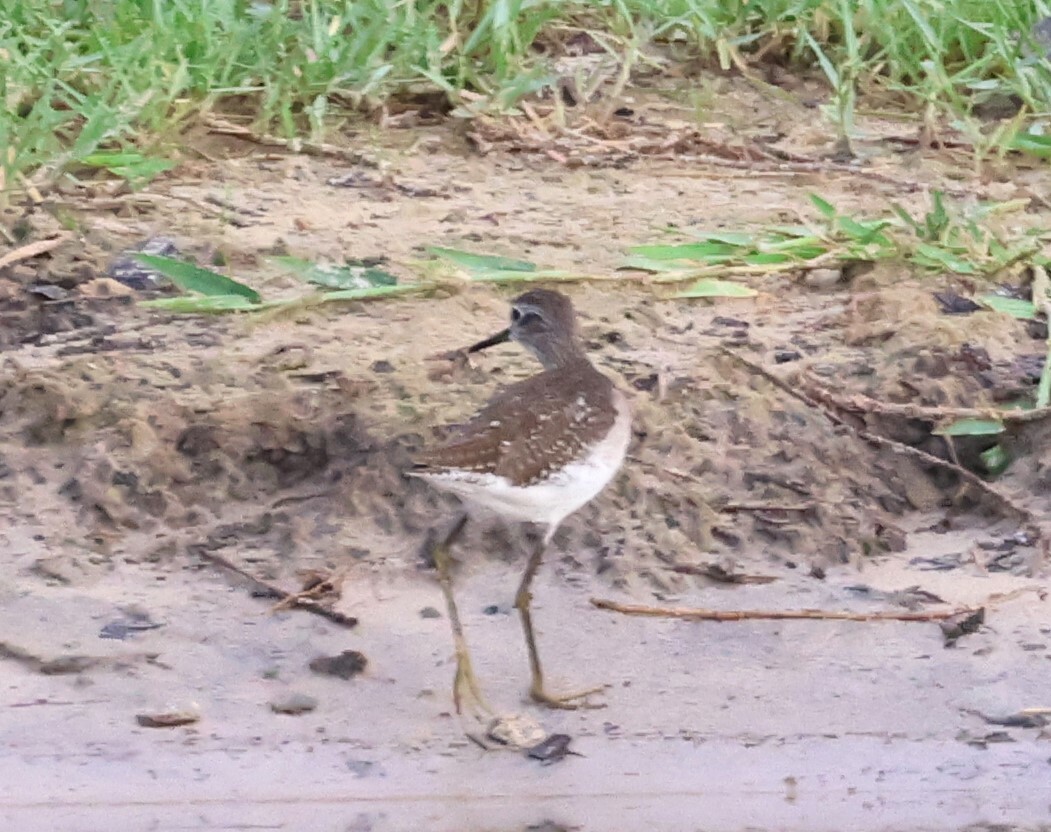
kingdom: Animalia
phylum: Chordata
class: Aves
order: Charadriiformes
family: Scolopacidae
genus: Tringa
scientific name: Tringa glareola
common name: Wood sandpiper
